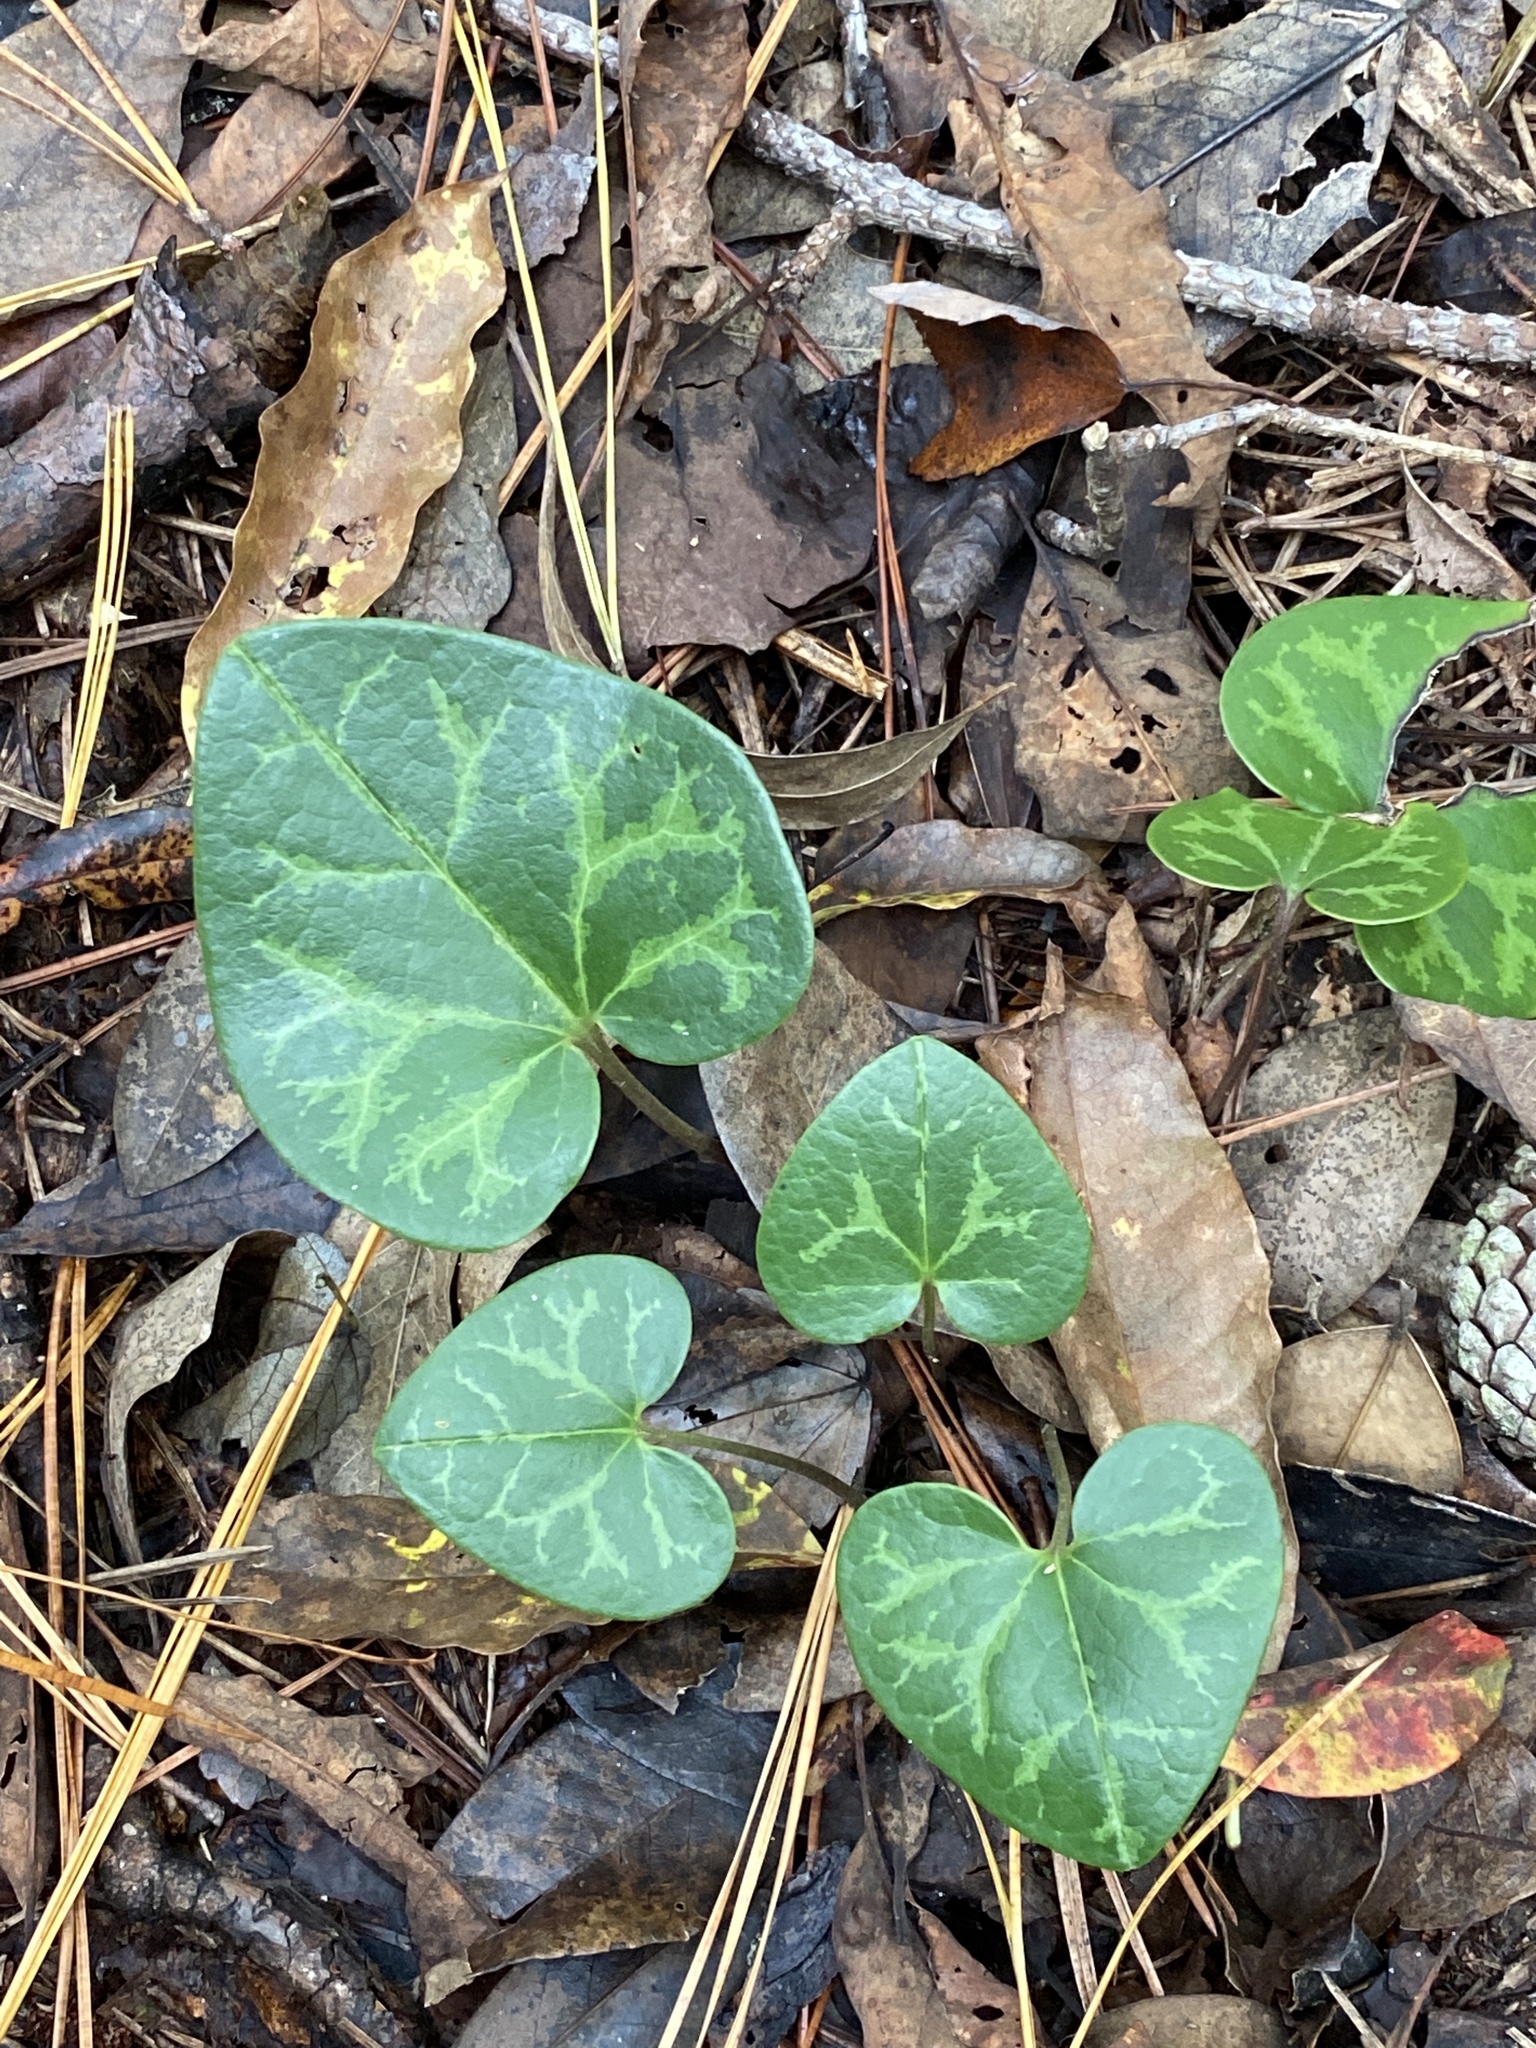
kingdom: Plantae
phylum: Tracheophyta
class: Magnoliopsida
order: Piperales
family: Aristolochiaceae
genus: Hexastylis
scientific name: Hexastylis sorriei
